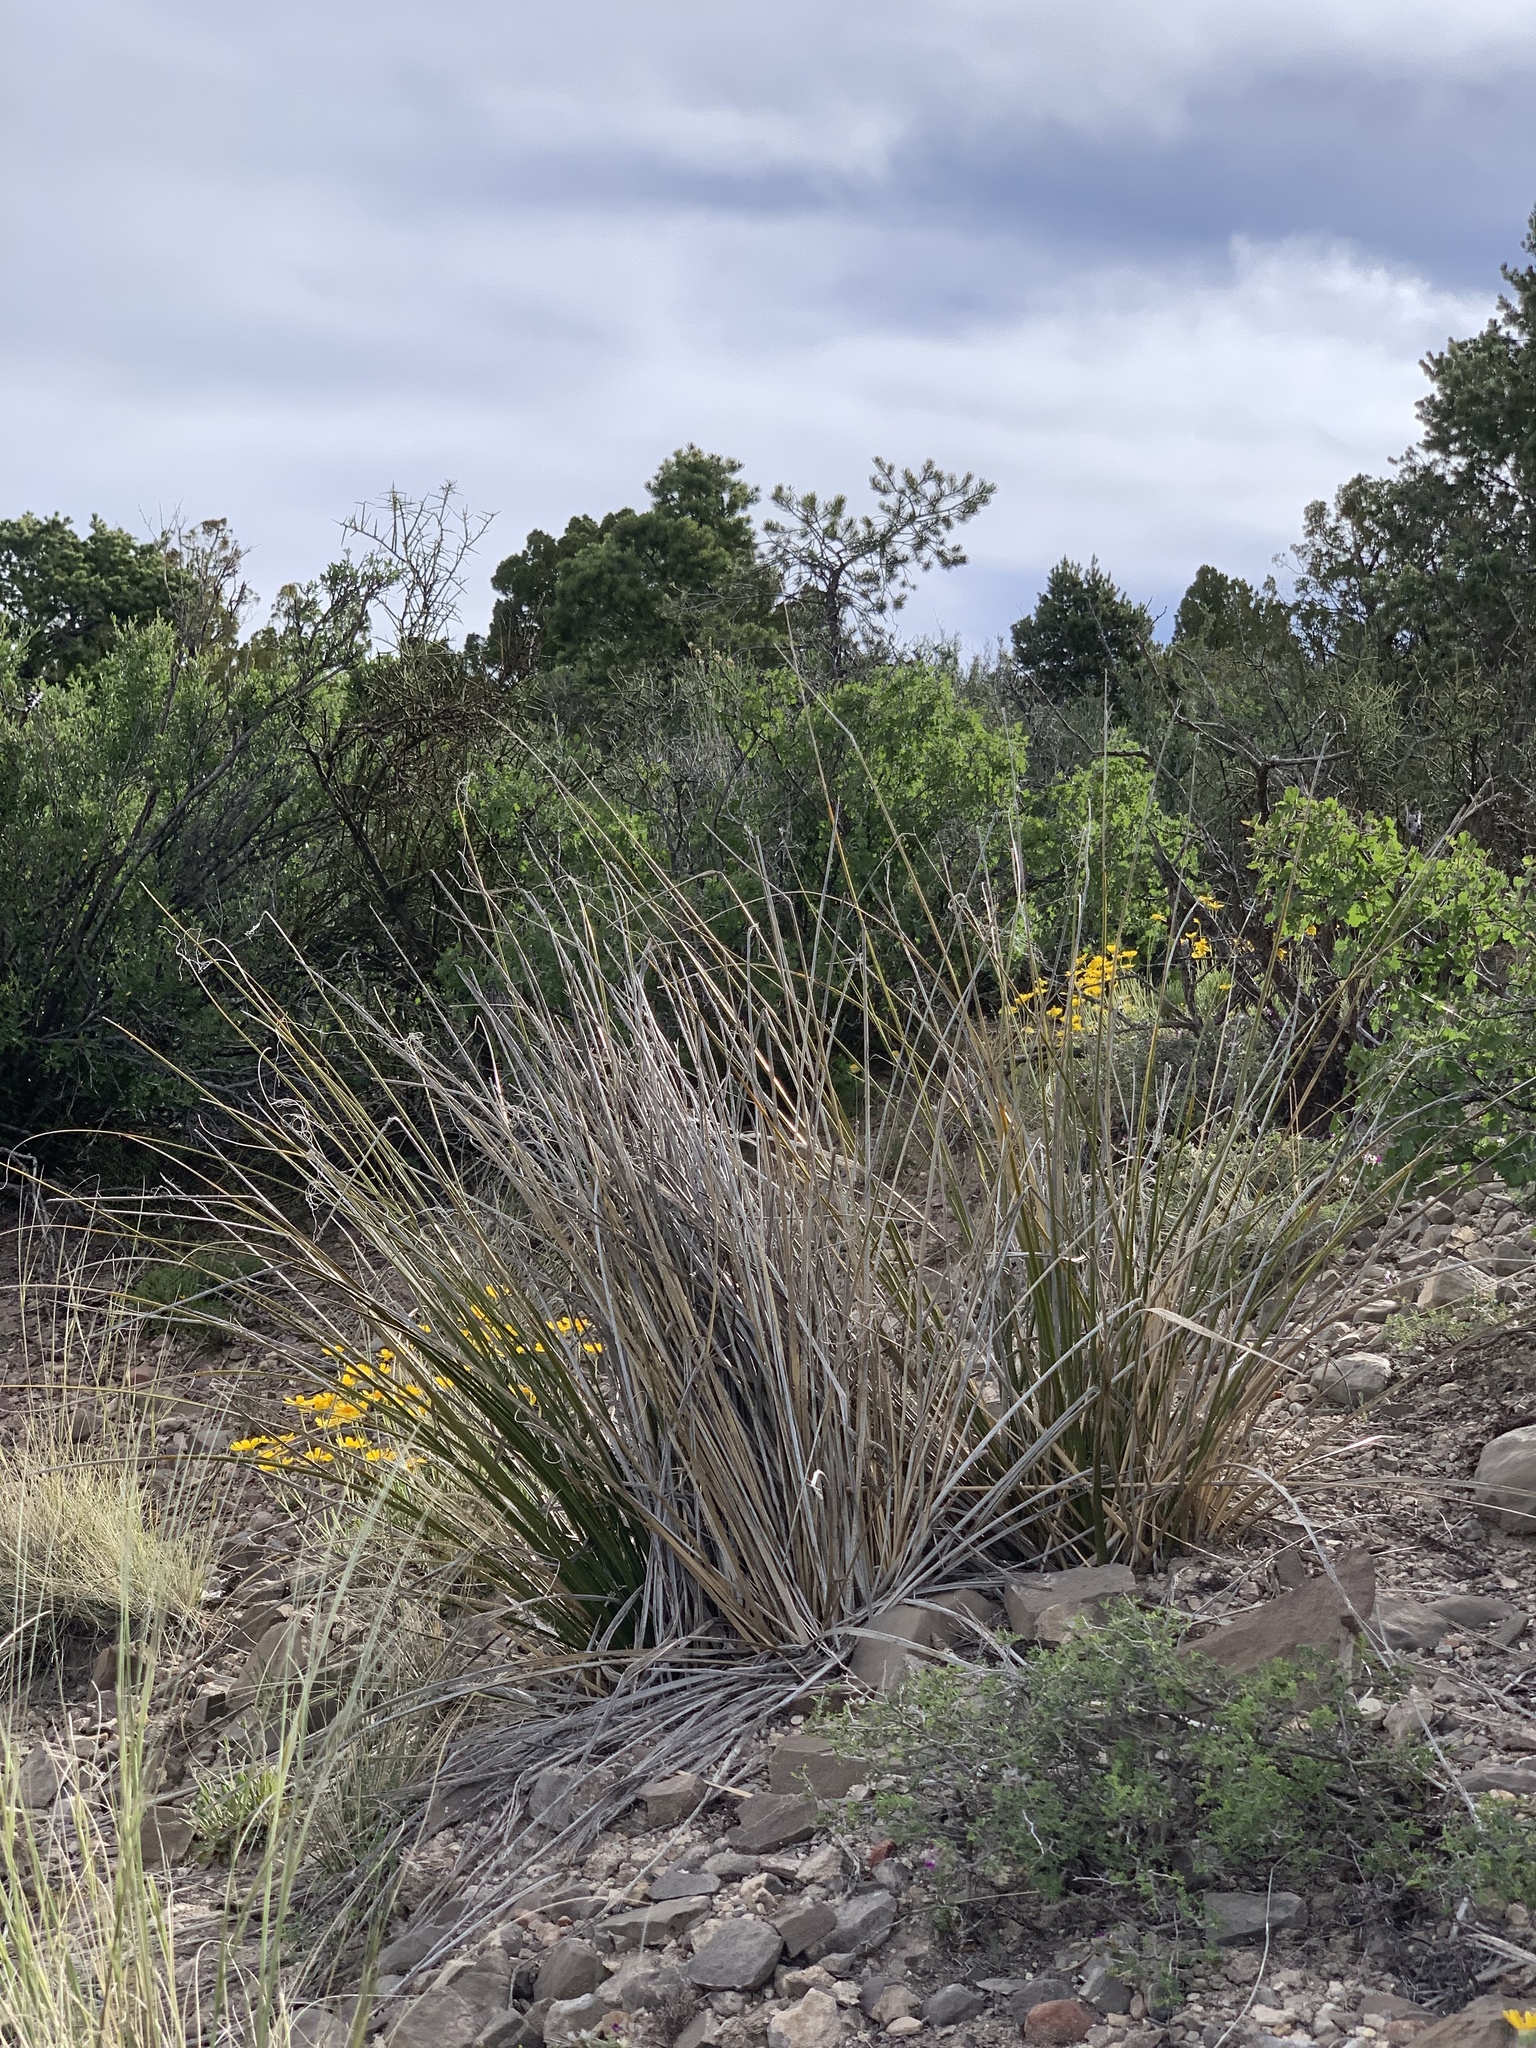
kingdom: Plantae
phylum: Tracheophyta
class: Liliopsida
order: Asparagales
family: Asparagaceae
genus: Nolina
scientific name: Nolina microcarpa
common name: Bear-grass
